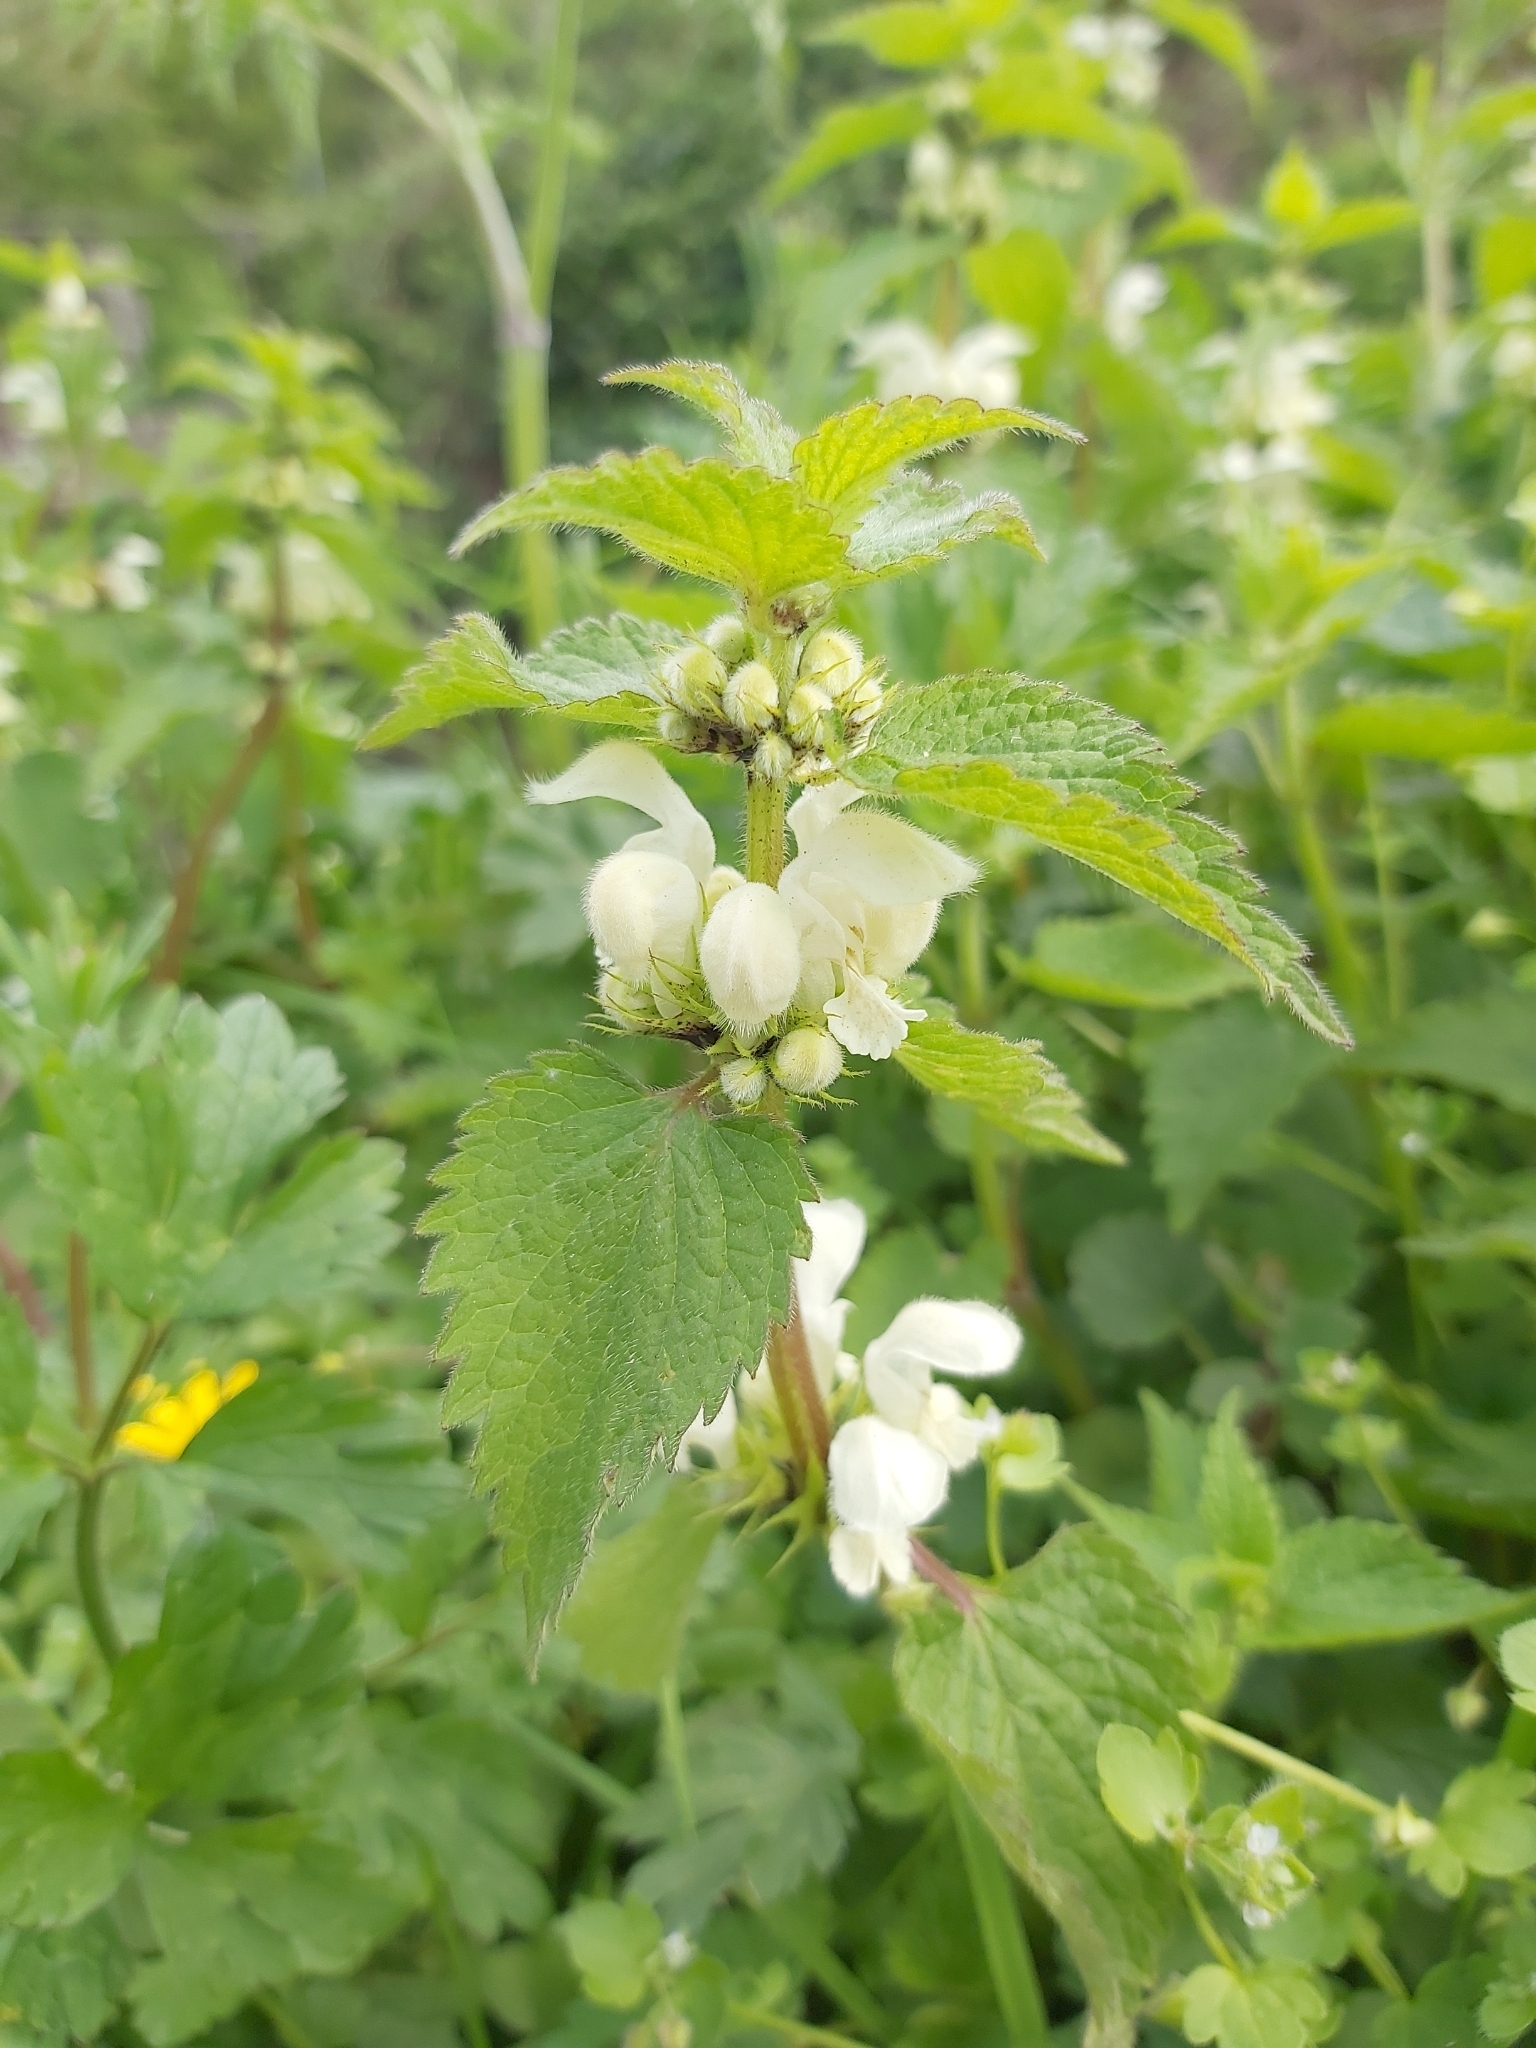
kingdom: Plantae
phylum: Tracheophyta
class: Magnoliopsida
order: Lamiales
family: Lamiaceae
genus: Lamium
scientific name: Lamium album
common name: White dead-nettle
